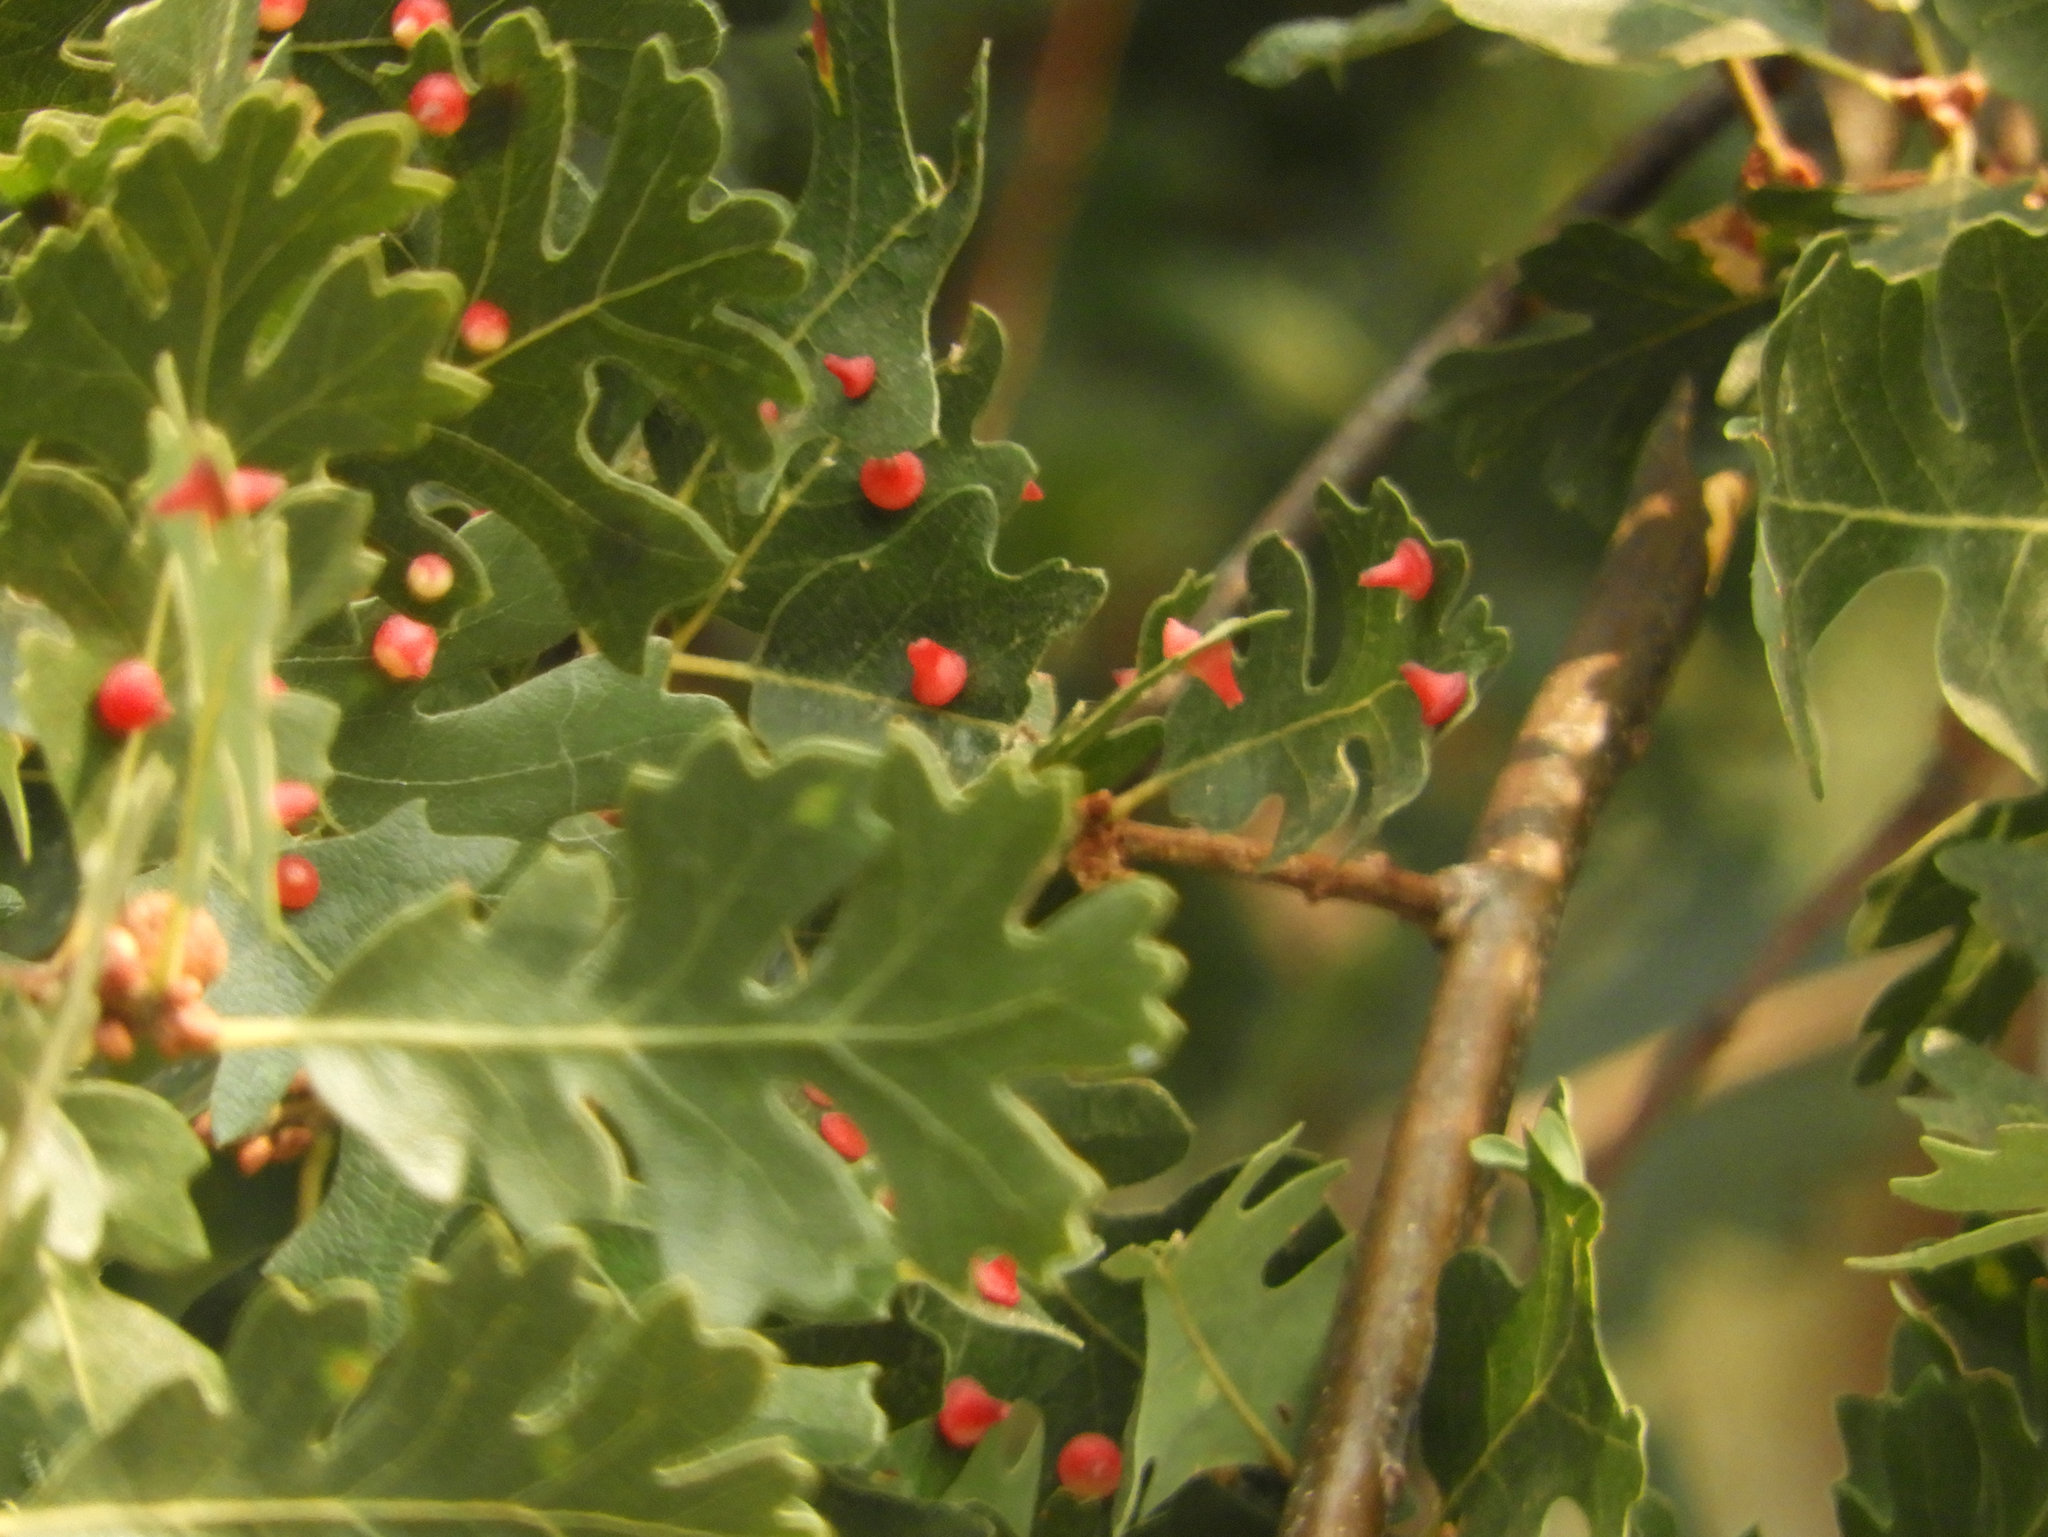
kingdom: Animalia
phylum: Arthropoda
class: Insecta
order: Hymenoptera
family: Cynipidae
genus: Andricus
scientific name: Andricus
